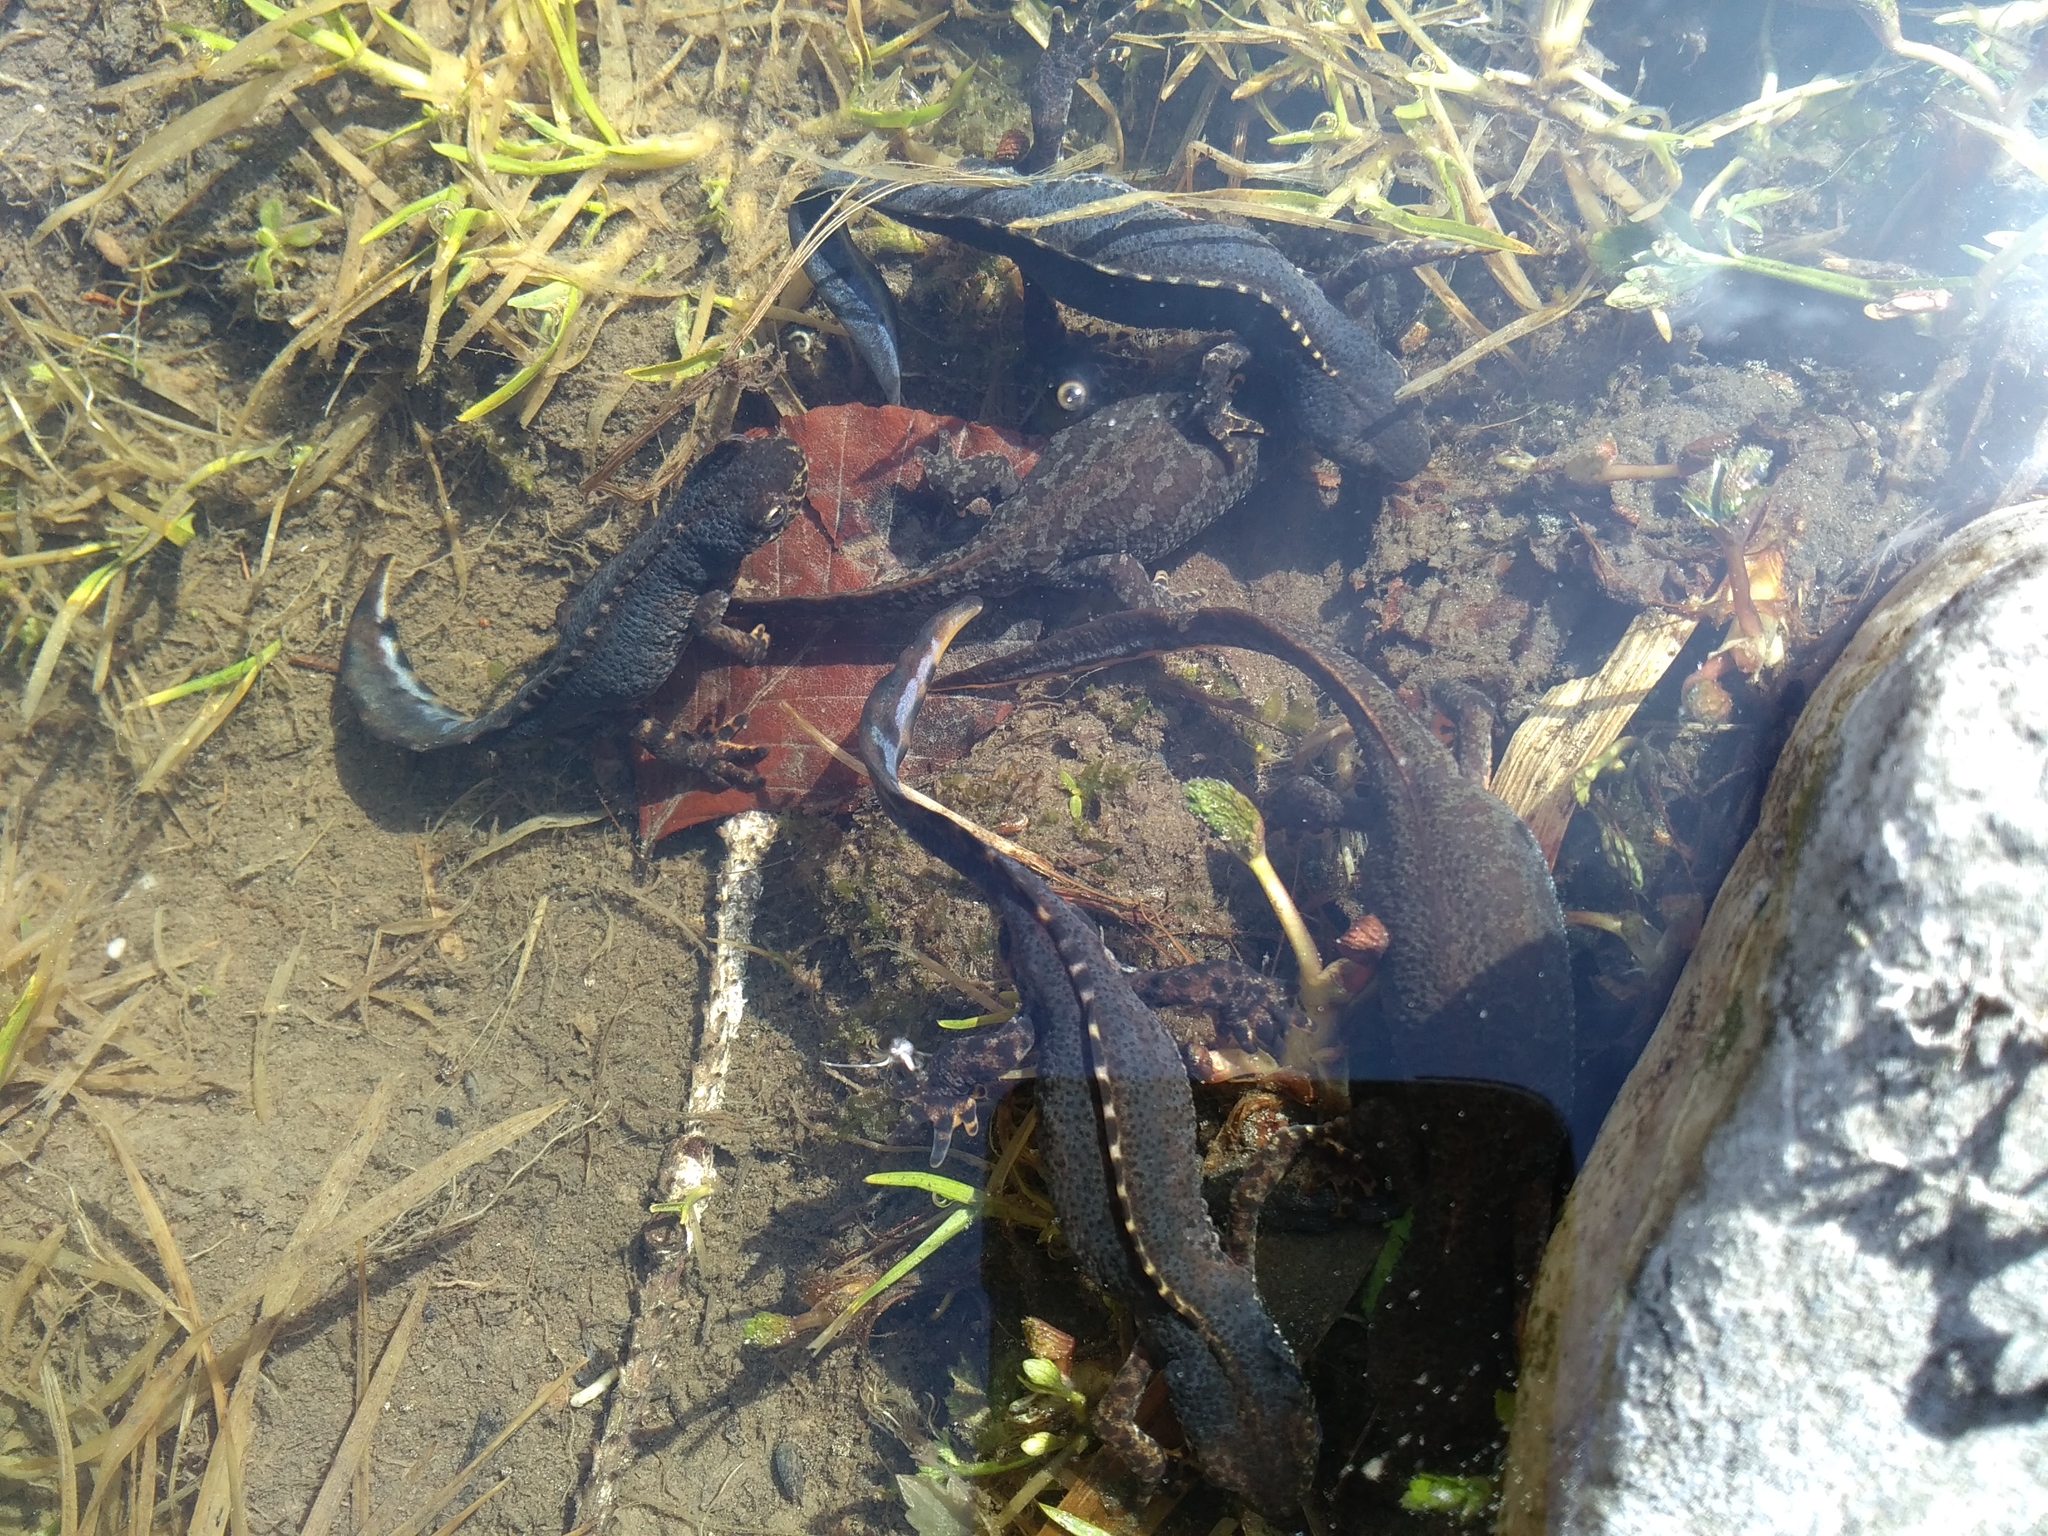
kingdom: Animalia
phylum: Chordata
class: Amphibia
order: Caudata
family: Salamandridae
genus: Ichthyosaura
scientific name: Ichthyosaura alpestris
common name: Alpine newt
